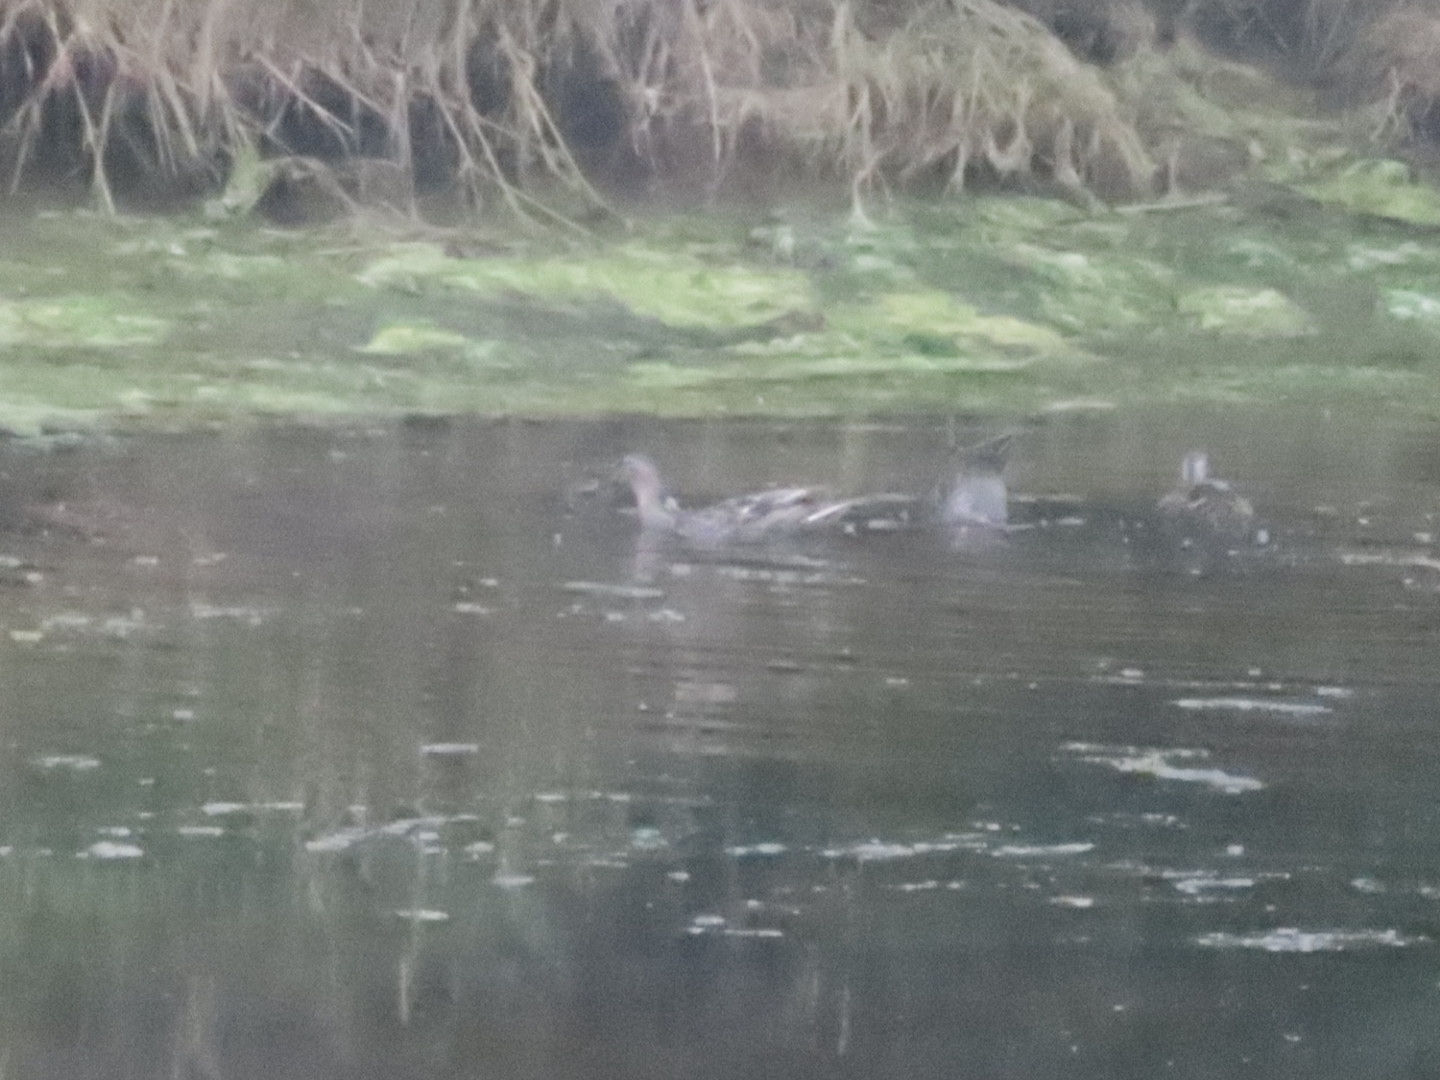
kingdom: Animalia
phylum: Chordata
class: Aves
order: Anseriformes
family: Anatidae
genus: Anas
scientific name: Anas
